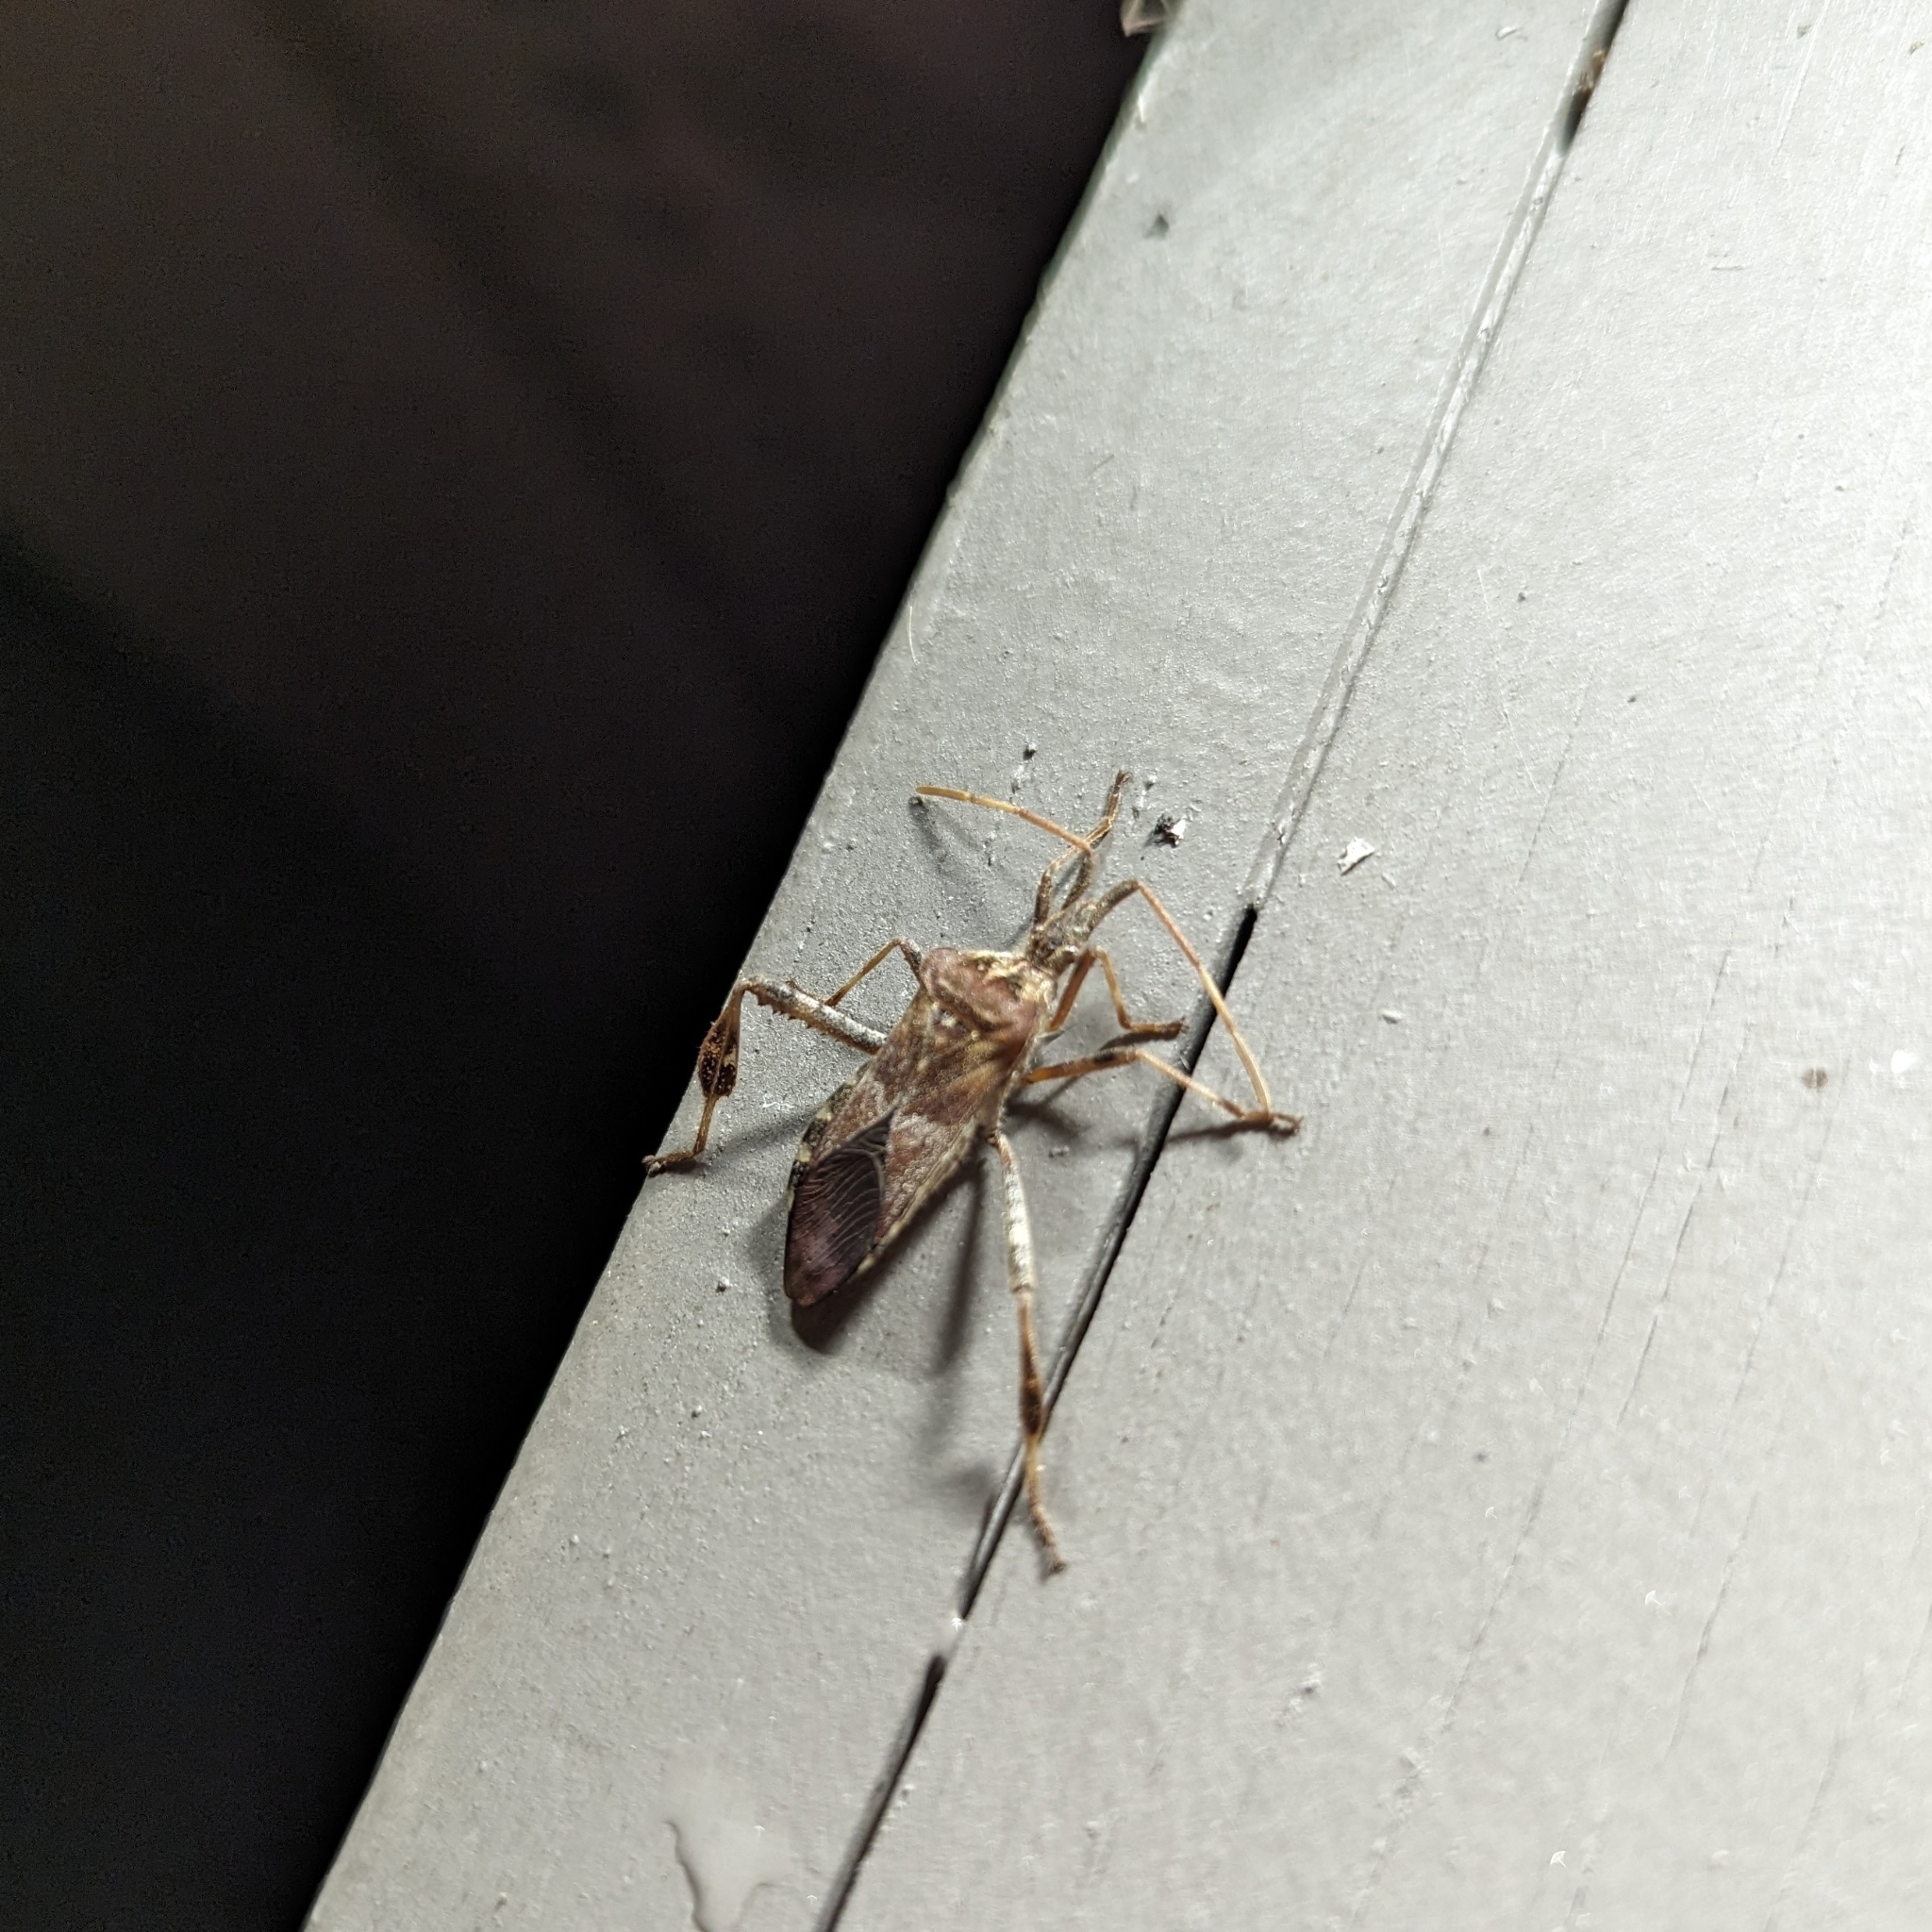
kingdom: Animalia
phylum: Arthropoda
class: Insecta
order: Hemiptera
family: Coreidae
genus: Leptoglossus
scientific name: Leptoglossus occidentalis
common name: Western conifer-seed bug
